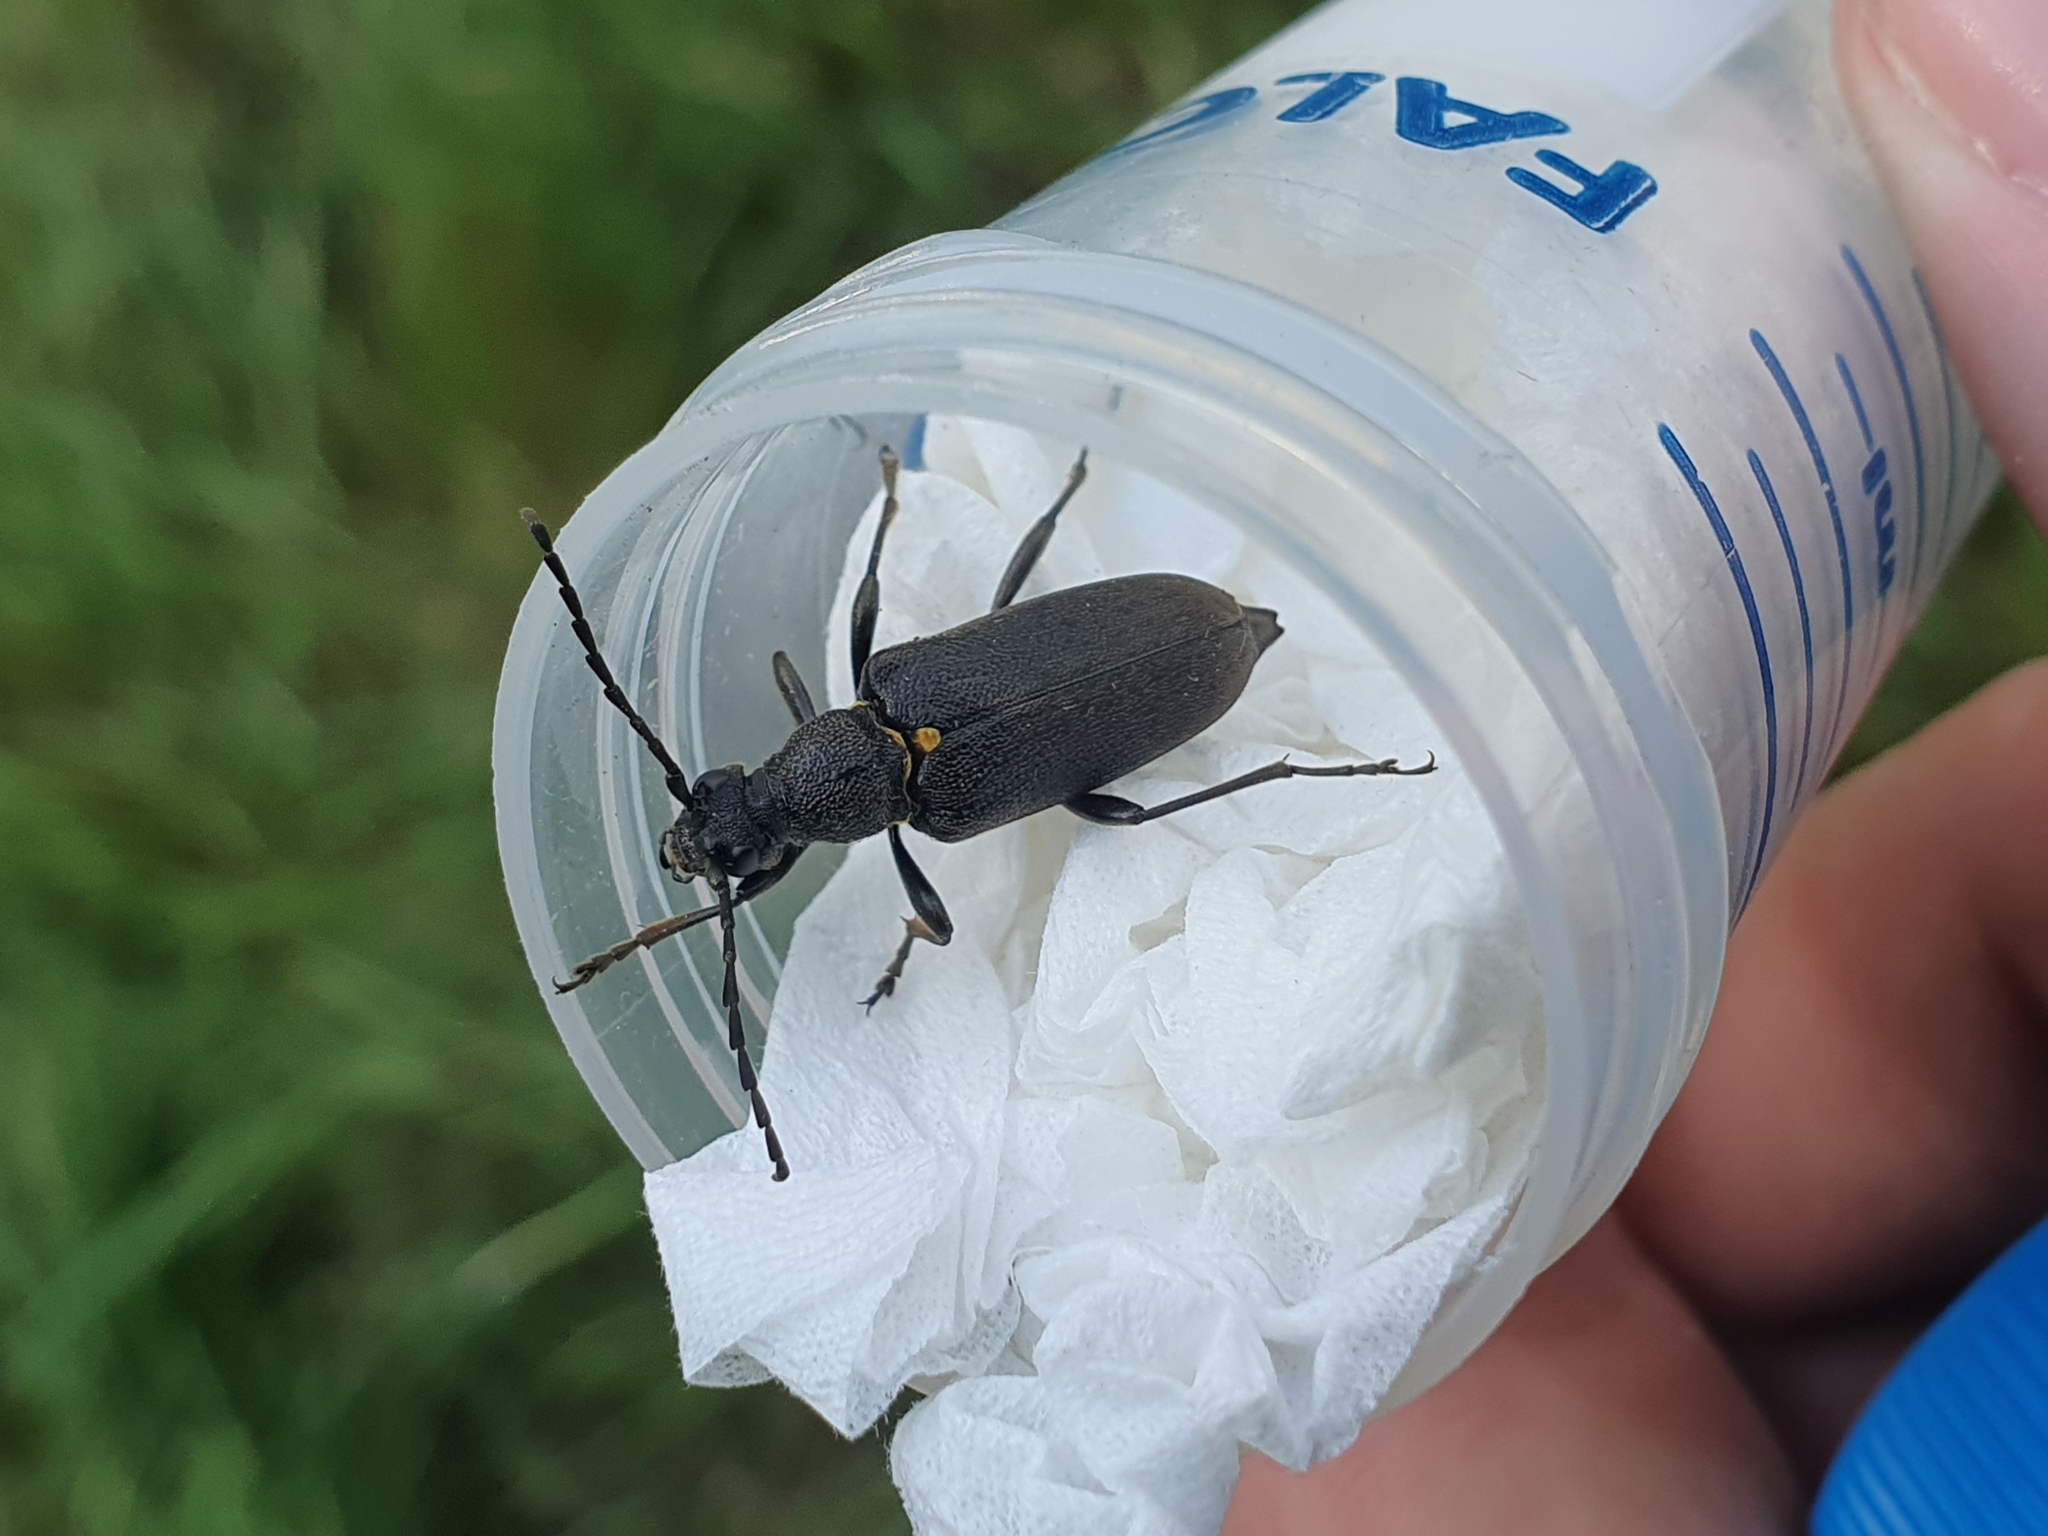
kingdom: Animalia
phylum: Arthropoda
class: Insecta
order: Coleoptera
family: Cerambycidae
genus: Stictoleptura
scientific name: Stictoleptura scutellata
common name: Large black longhorn beetle
